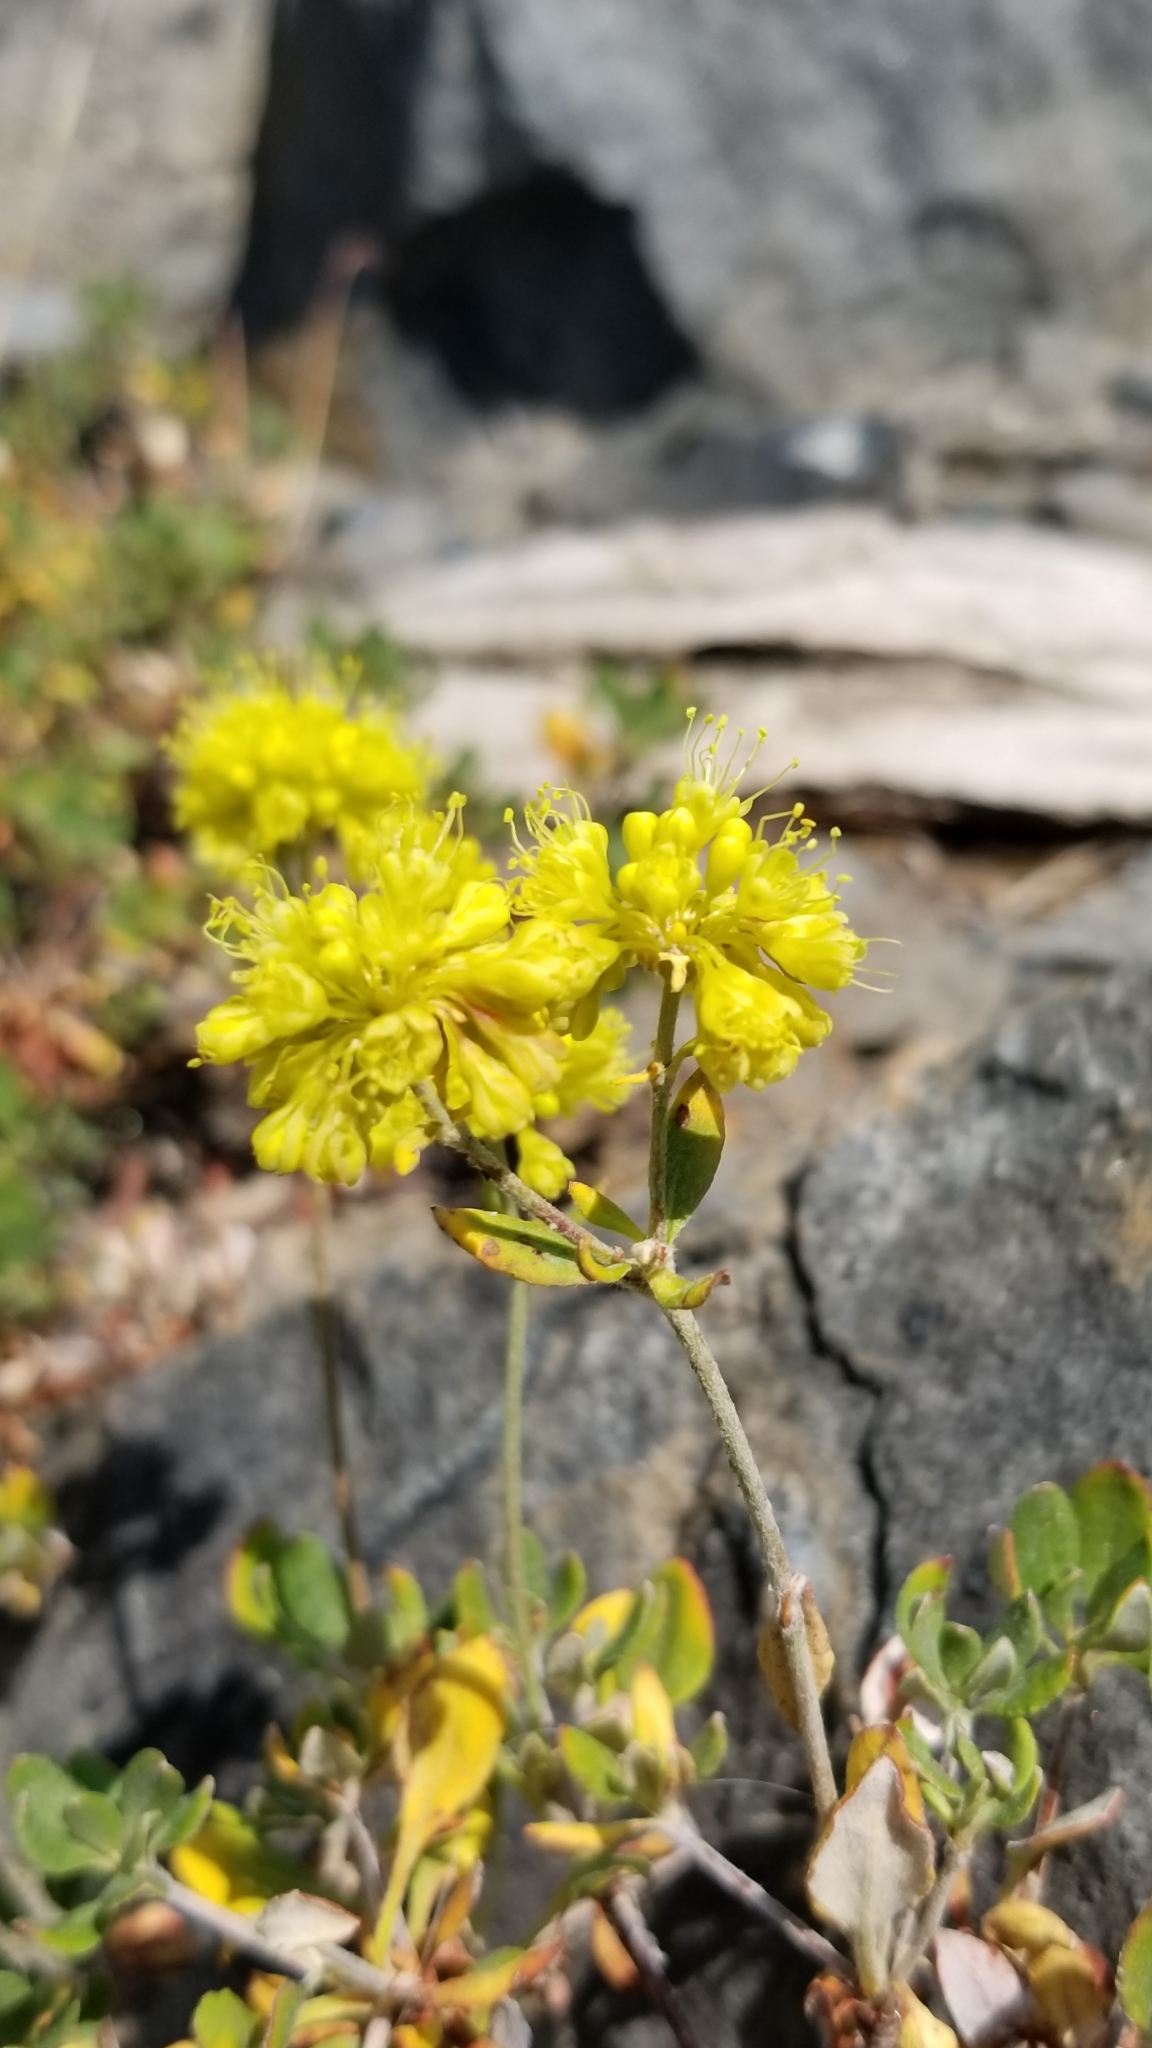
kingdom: Plantae
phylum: Tracheophyta
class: Magnoliopsida
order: Caryophyllales
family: Polygonaceae
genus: Eriogonum
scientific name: Eriogonum umbellatum
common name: Sulfur-buckwheat
